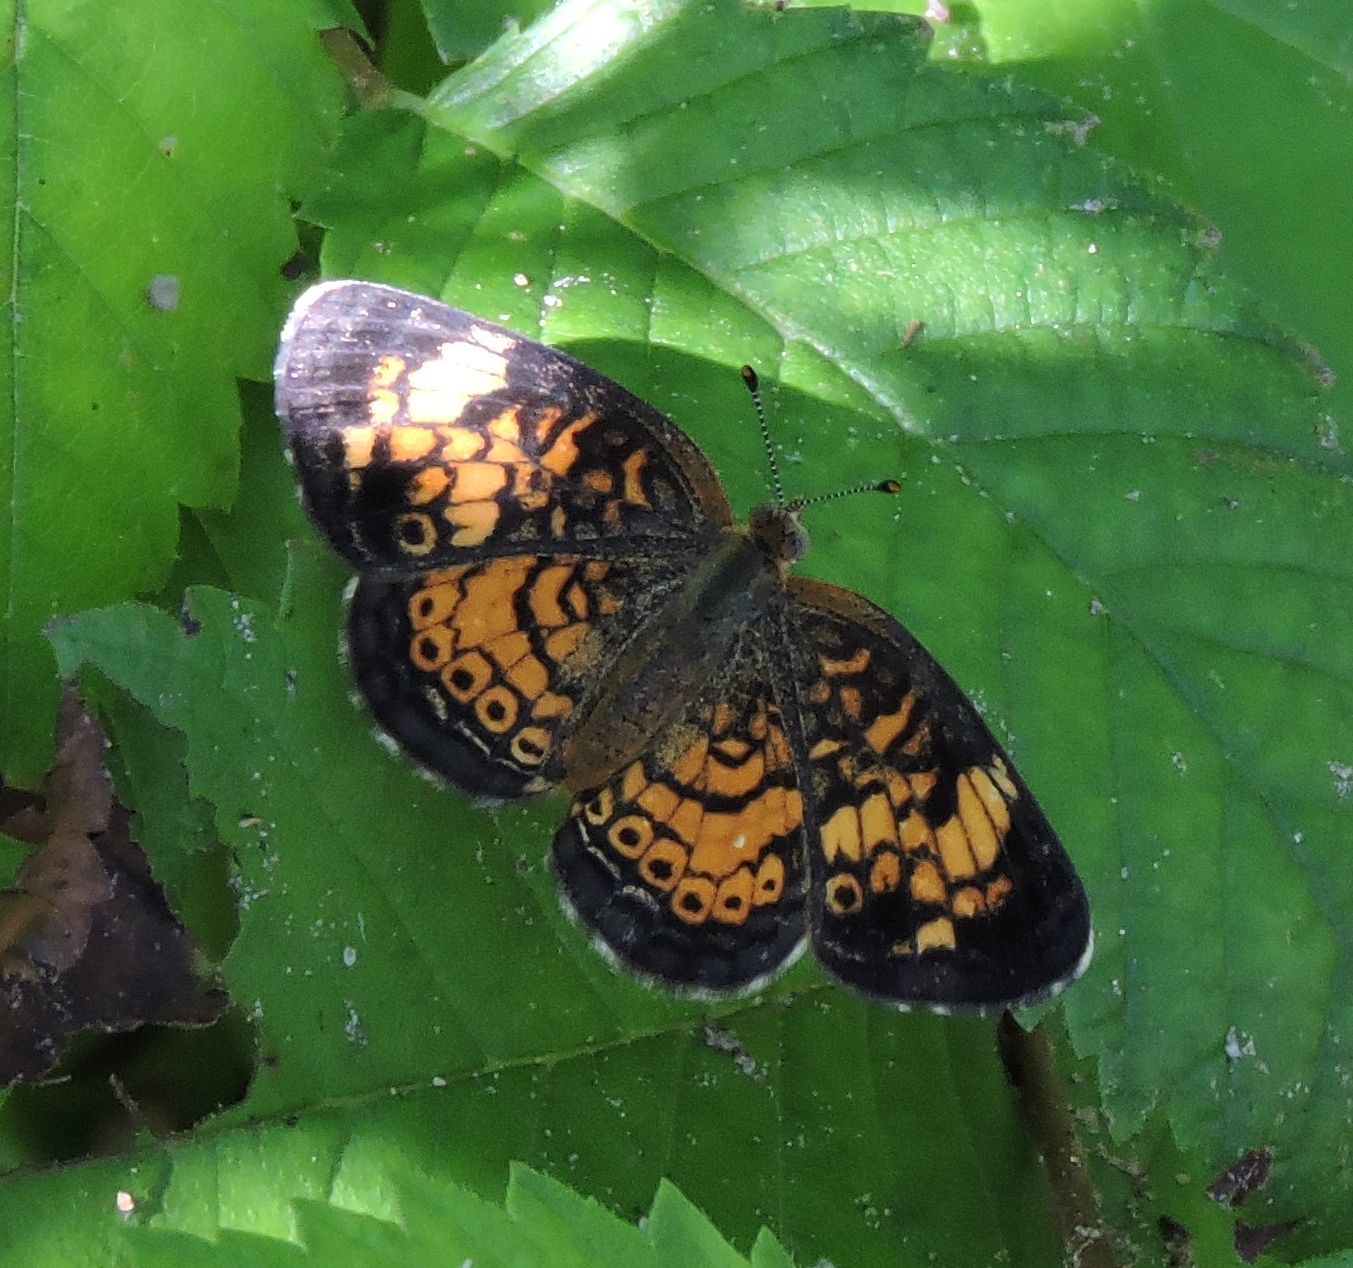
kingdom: Animalia
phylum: Arthropoda
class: Insecta
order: Lepidoptera
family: Nymphalidae
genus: Phyciodes
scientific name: Phyciodes tharos
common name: Pearl crescent
